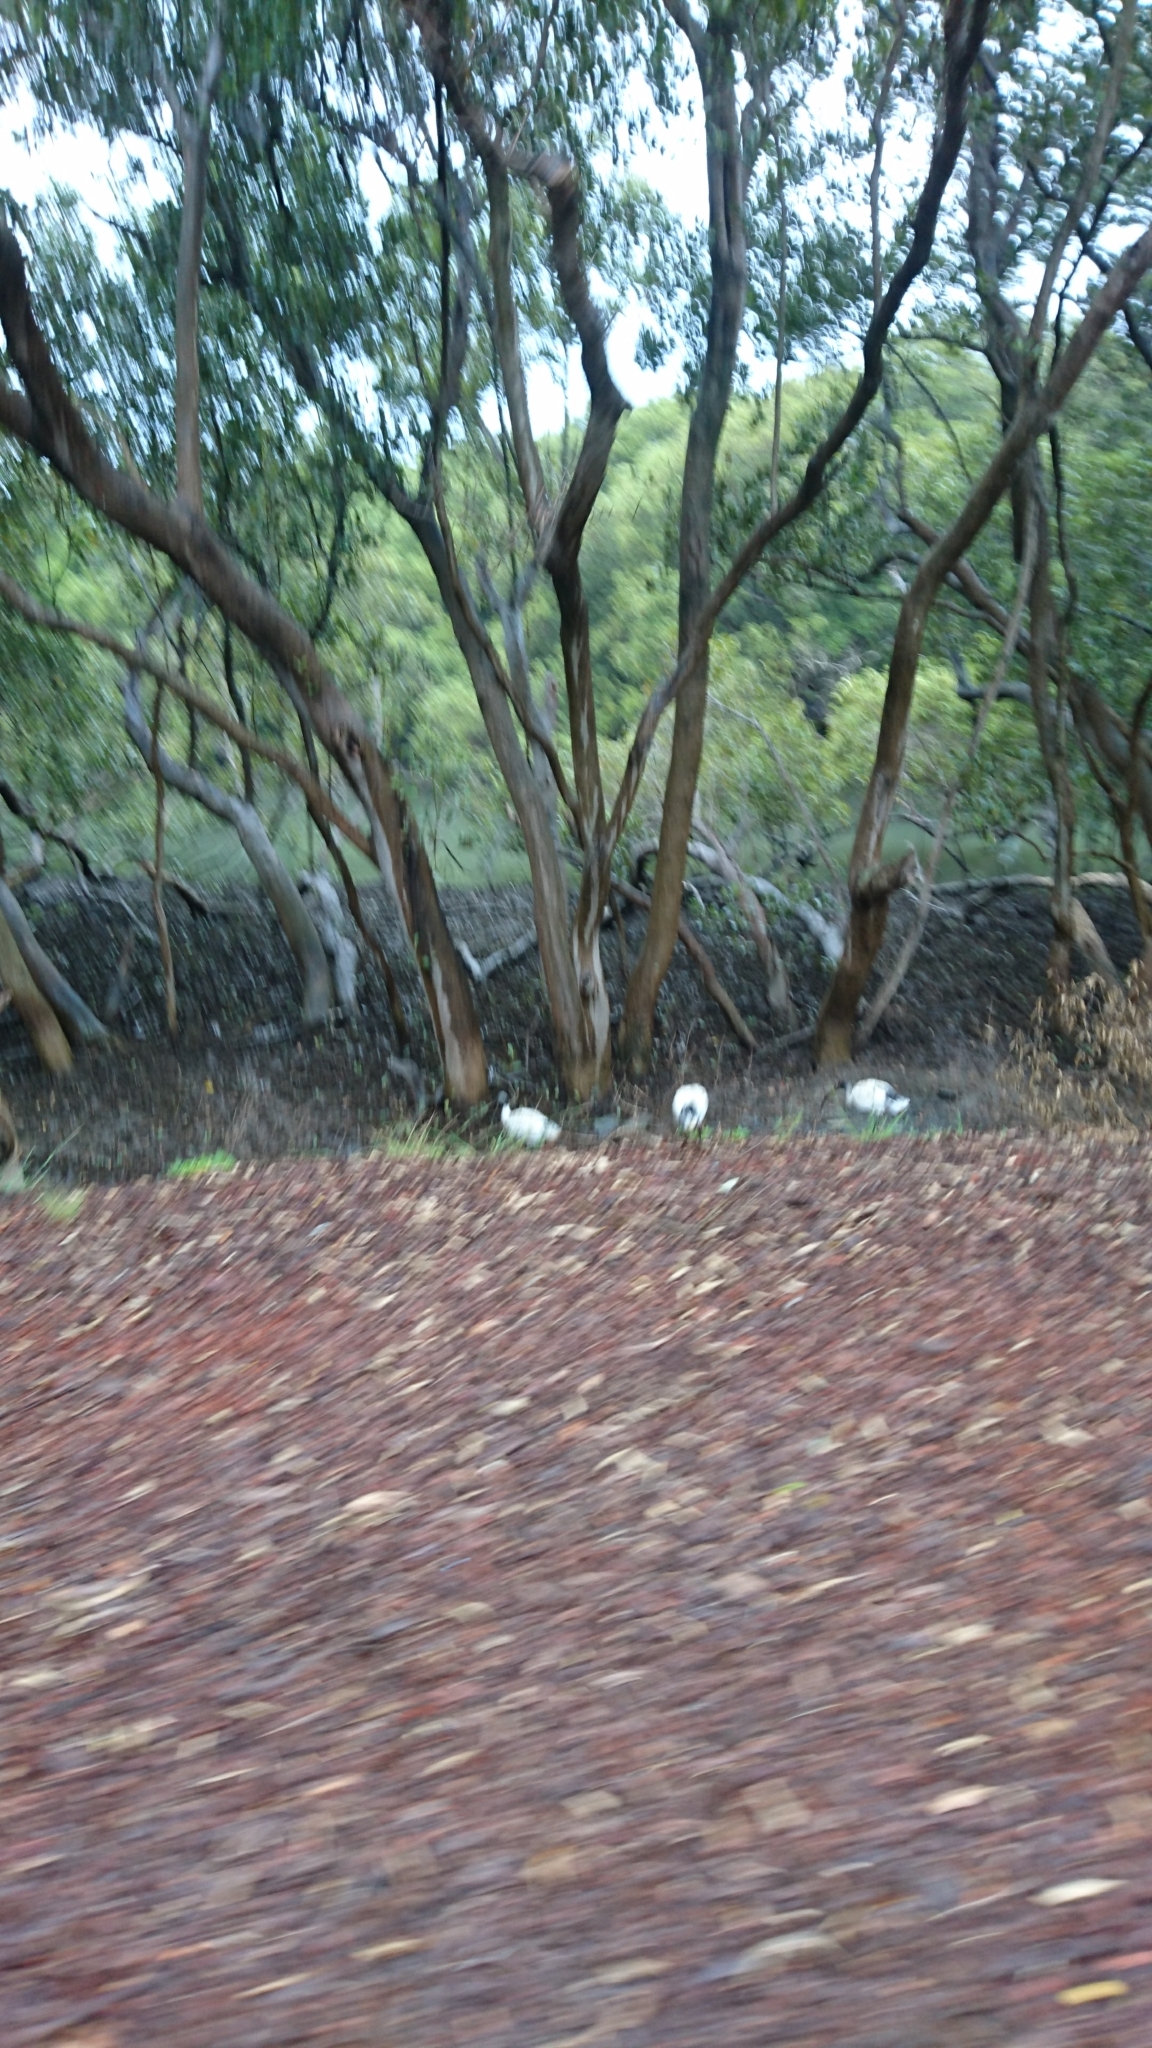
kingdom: Animalia
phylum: Chordata
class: Aves
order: Pelecaniformes
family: Threskiornithidae
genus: Threskiornis
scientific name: Threskiornis molucca
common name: Australian white ibis
